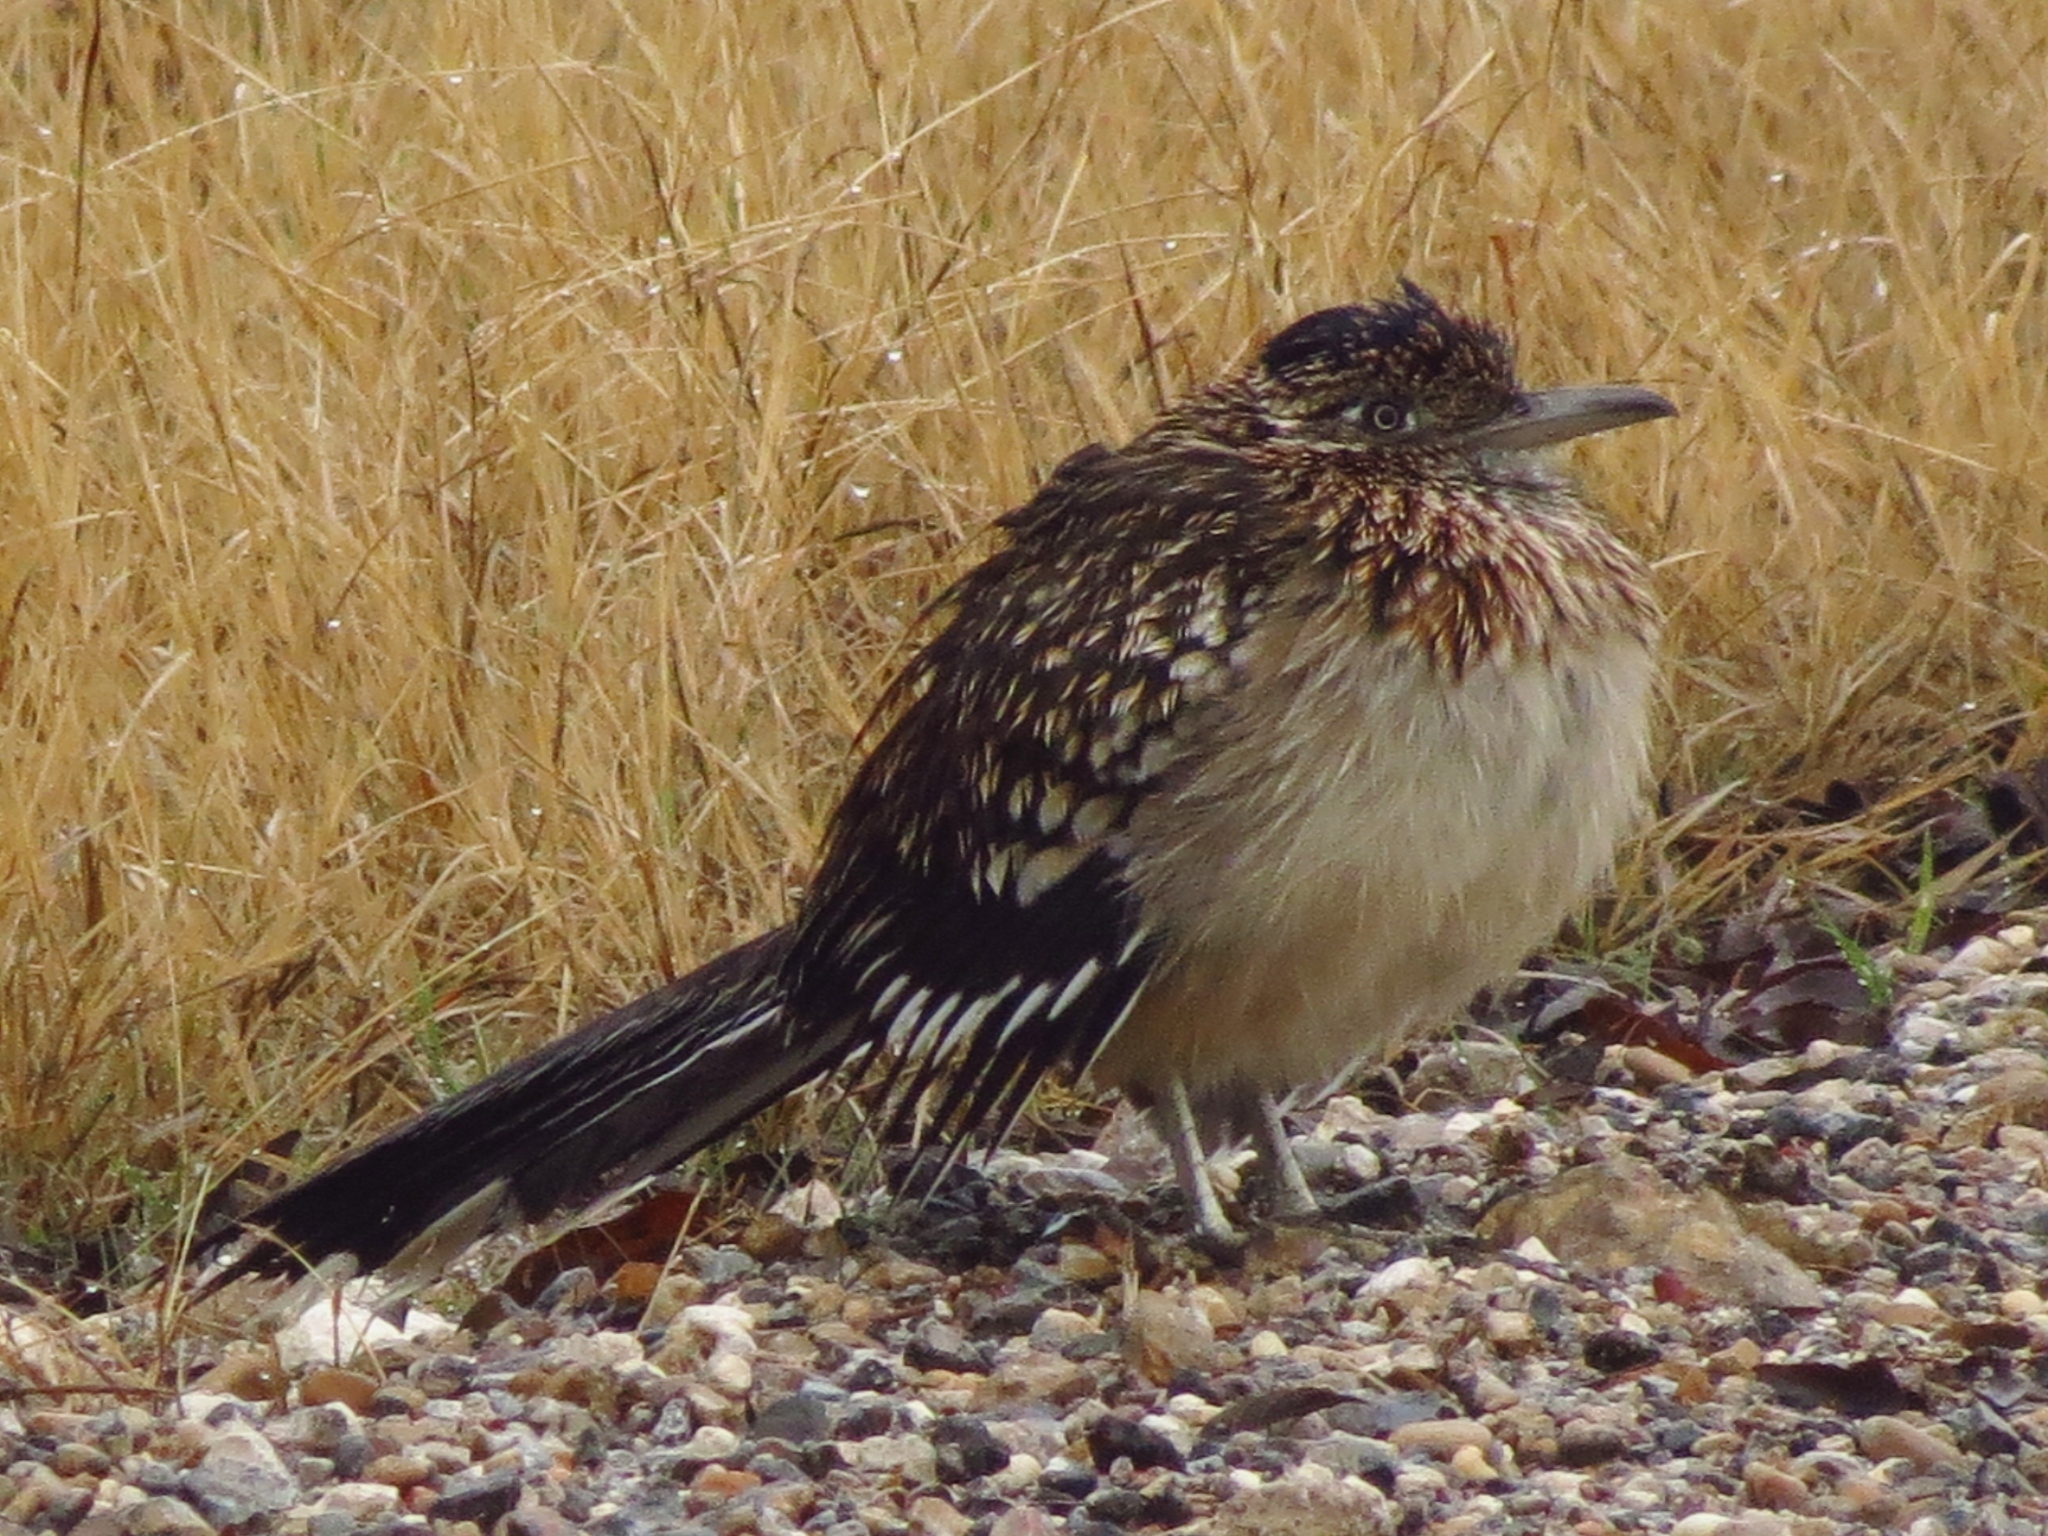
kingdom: Animalia
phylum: Chordata
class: Aves
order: Cuculiformes
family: Cuculidae
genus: Geococcyx
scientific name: Geococcyx californianus
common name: Greater roadrunner
